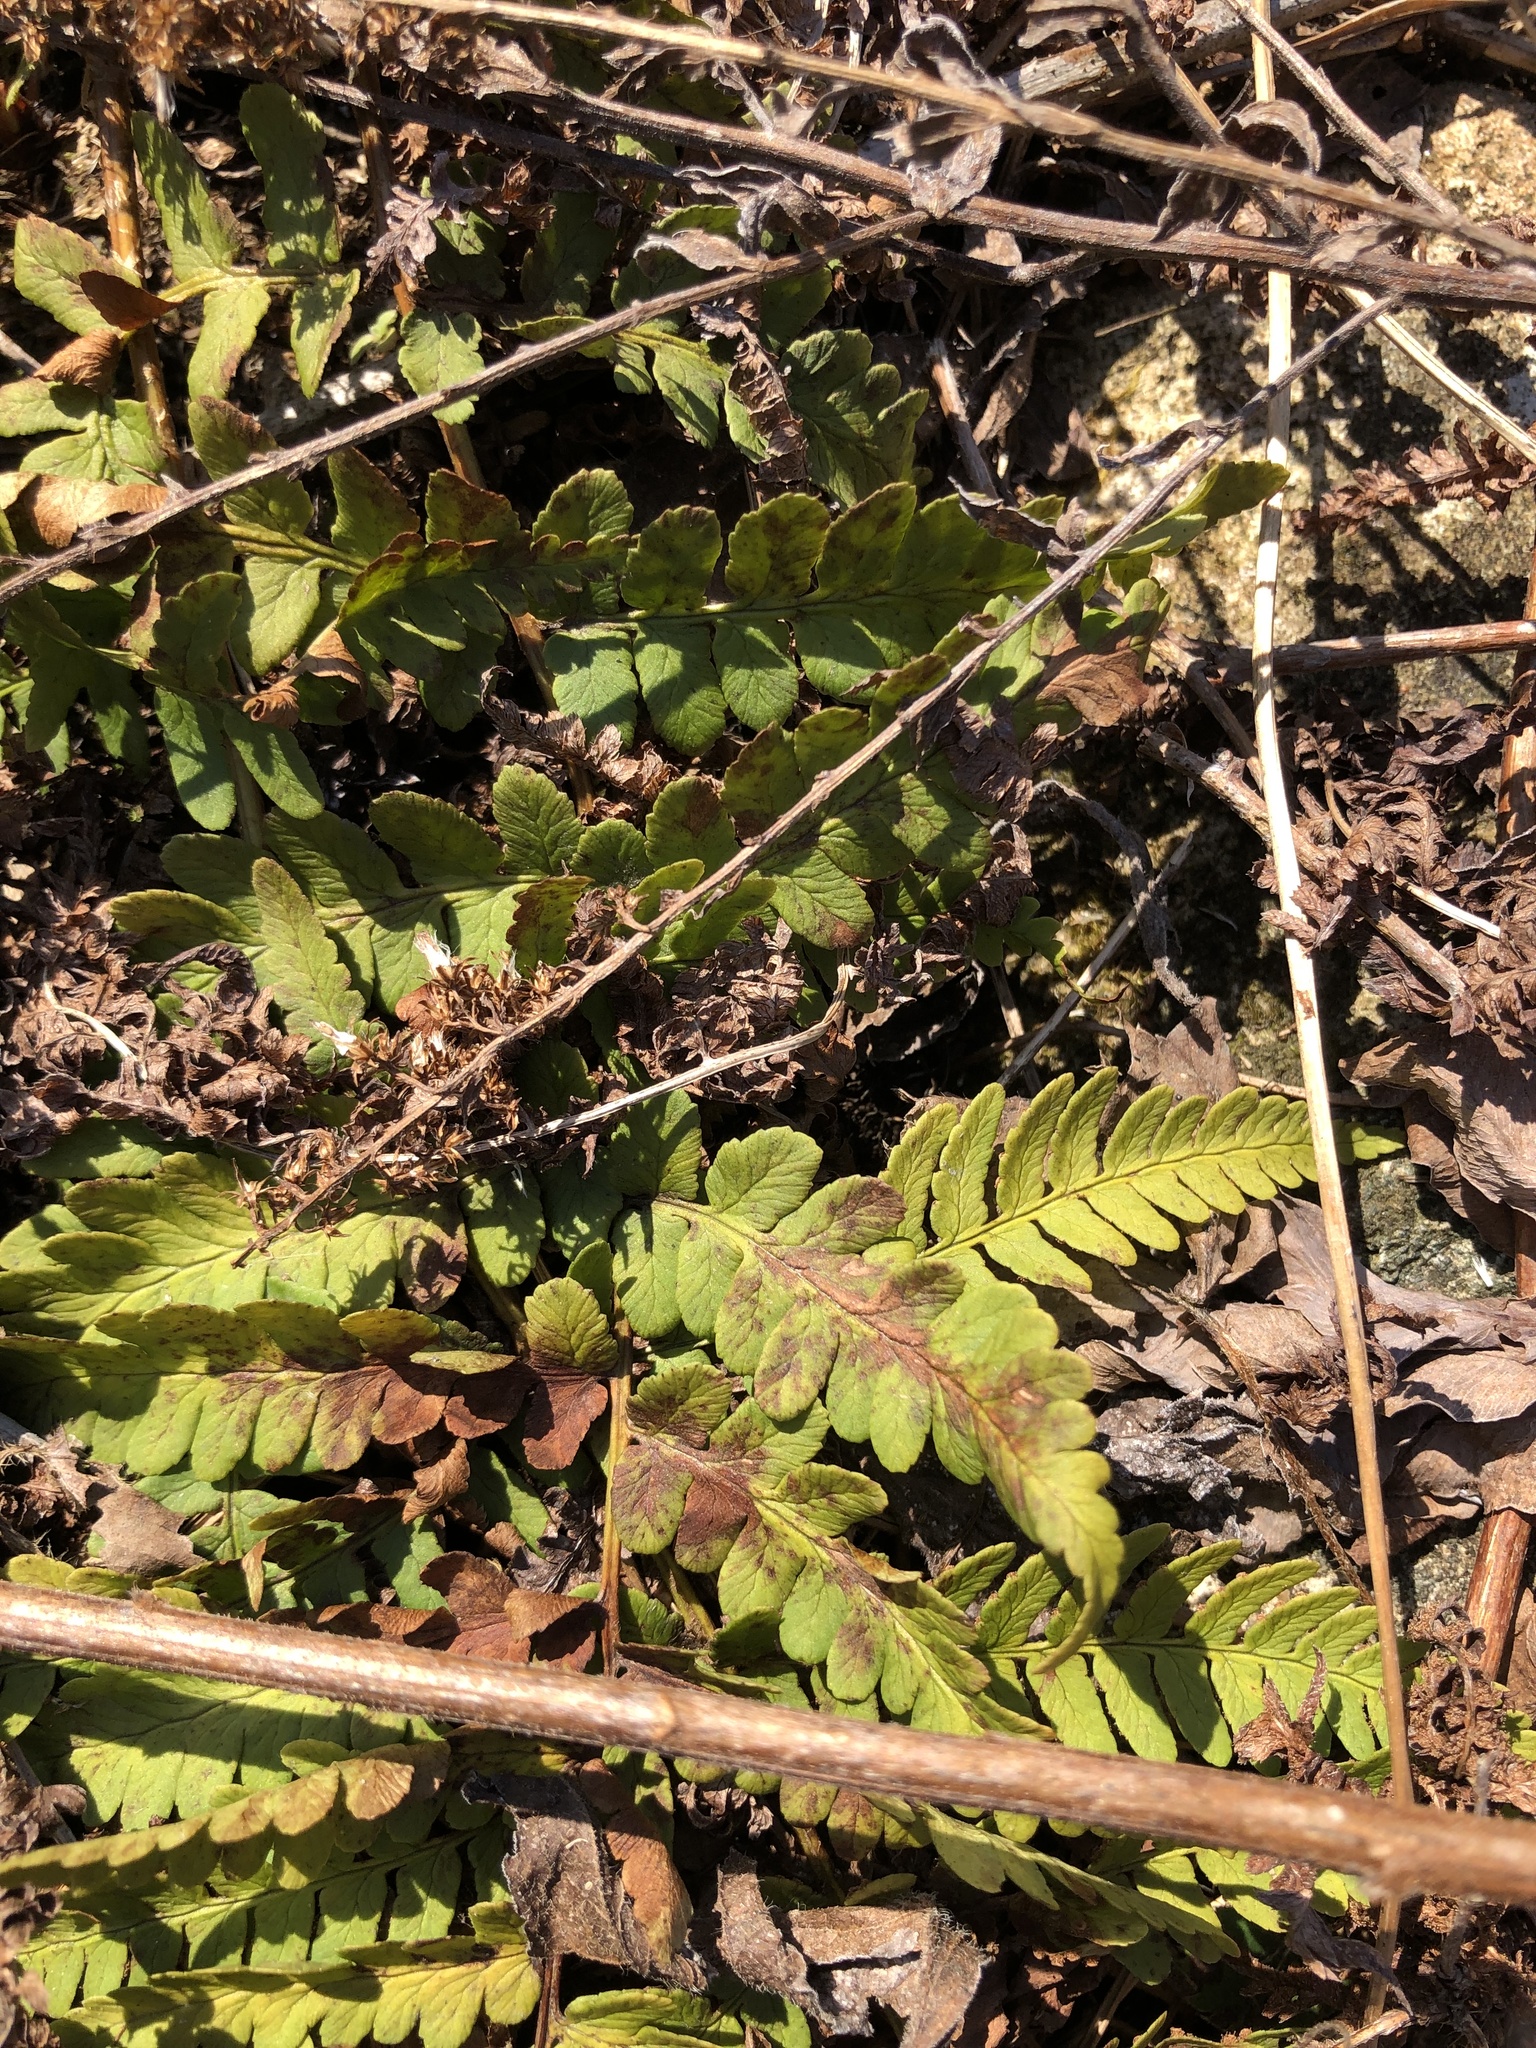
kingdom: Plantae
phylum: Tracheophyta
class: Polypodiopsida
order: Polypodiales
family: Dryopteridaceae
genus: Dryopteris
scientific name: Dryopteris marginalis
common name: Marginal wood fern
